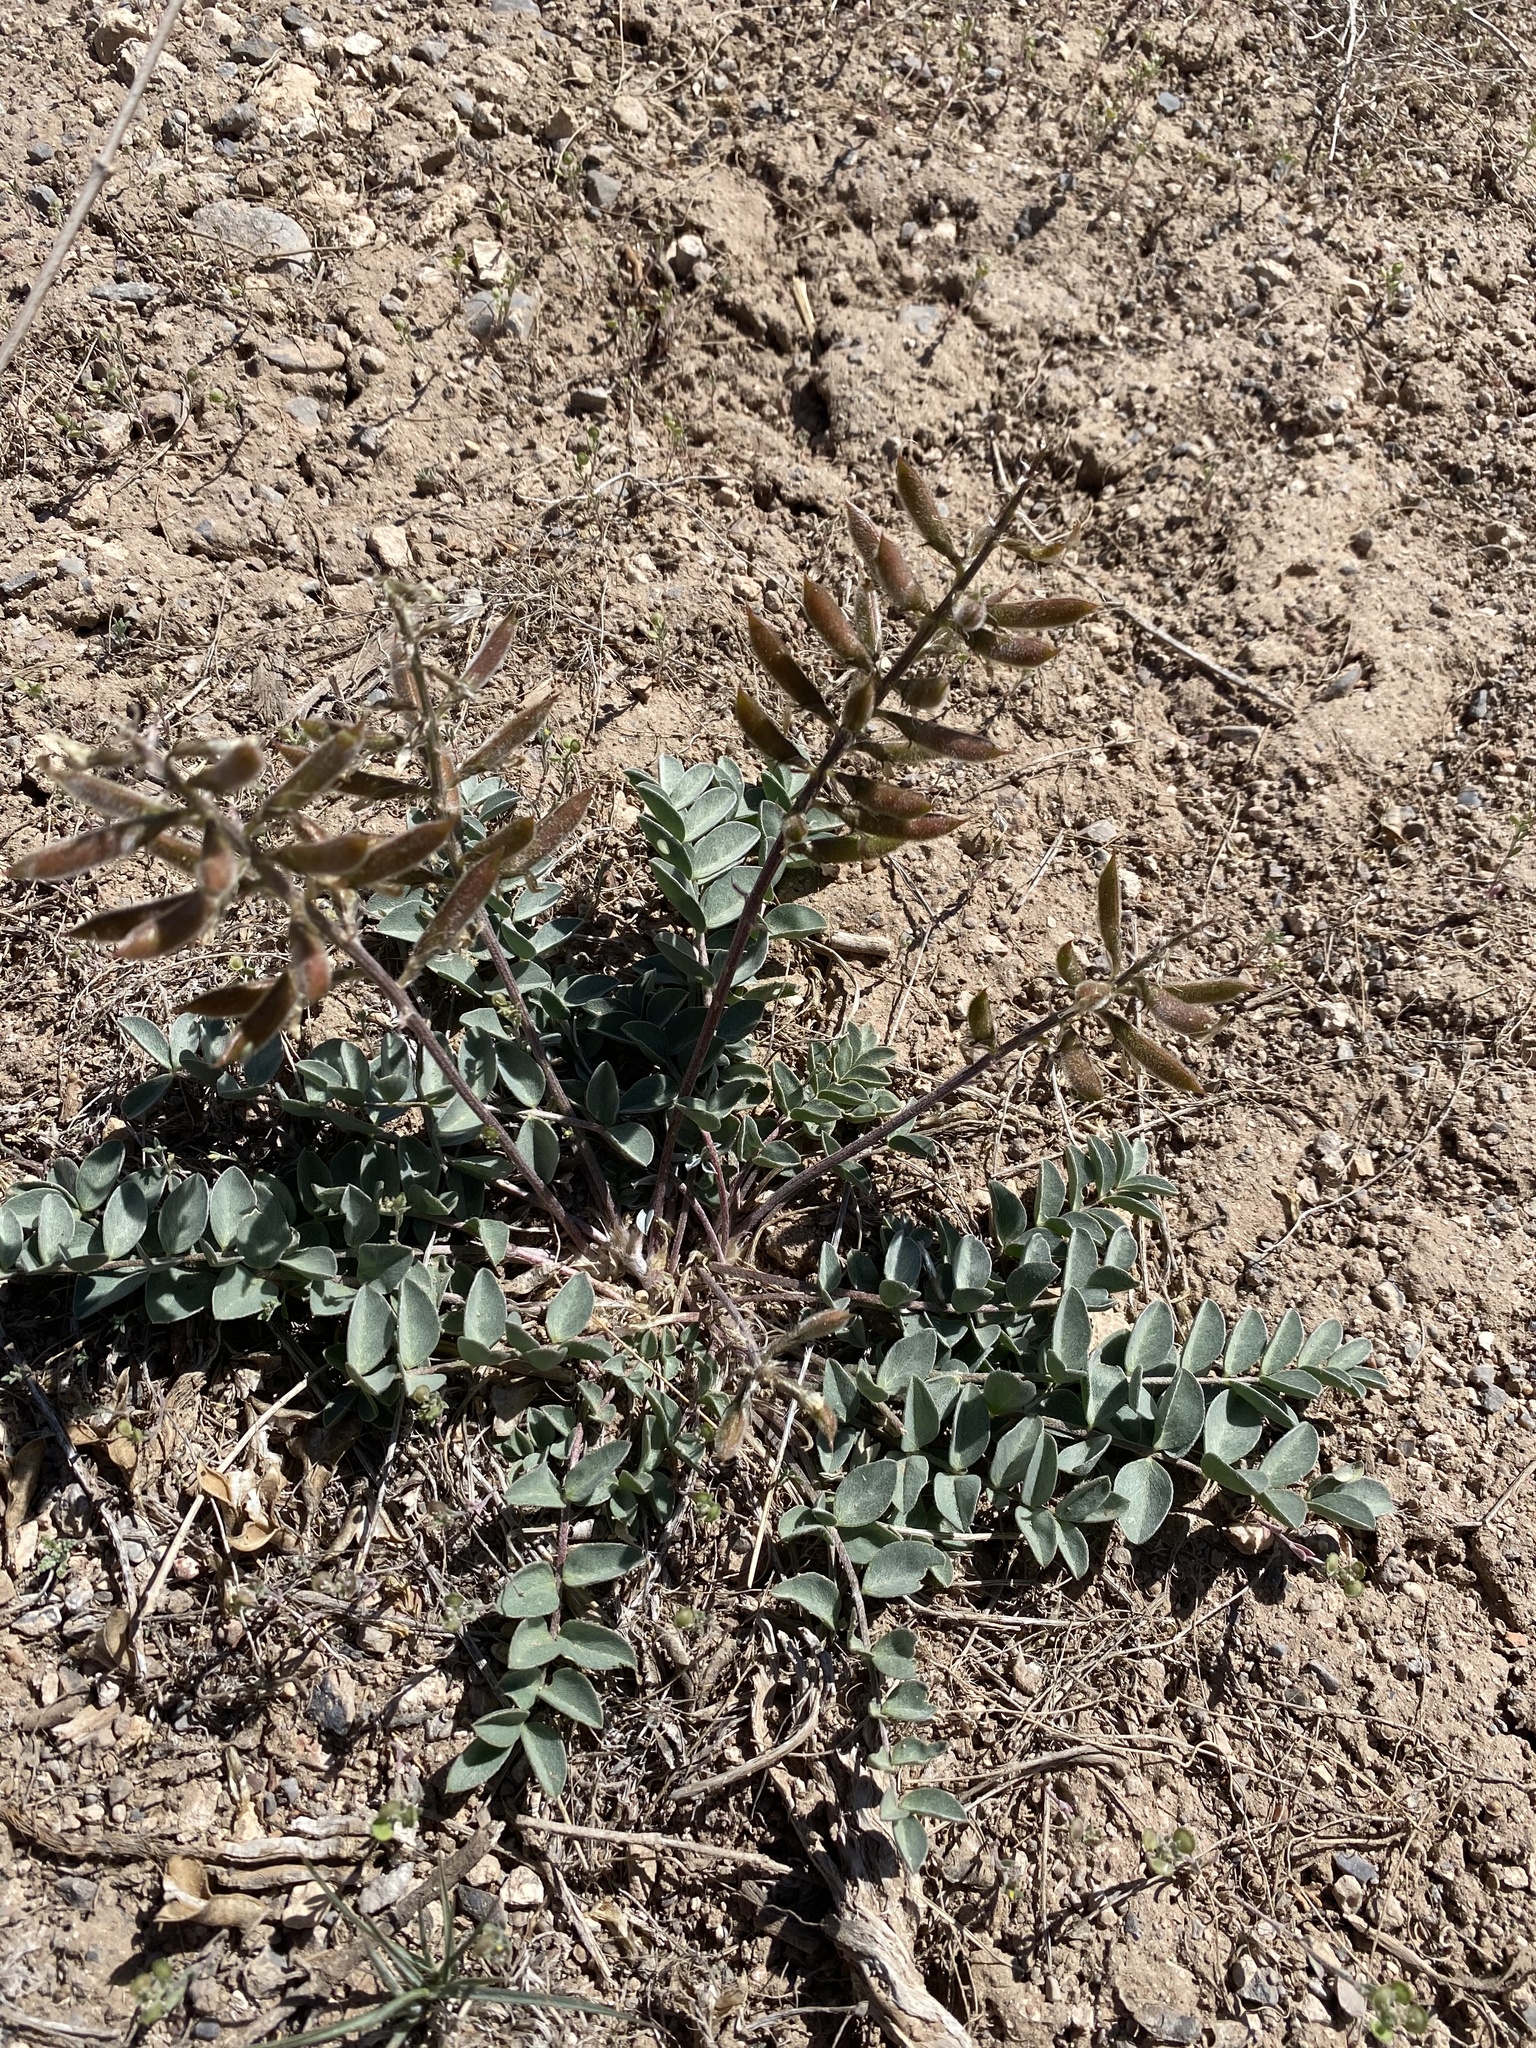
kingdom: Plantae
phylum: Tracheophyta
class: Magnoliopsida
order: Fabales
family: Fabaceae
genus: Astragalus
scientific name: Astragalus minthorniae
